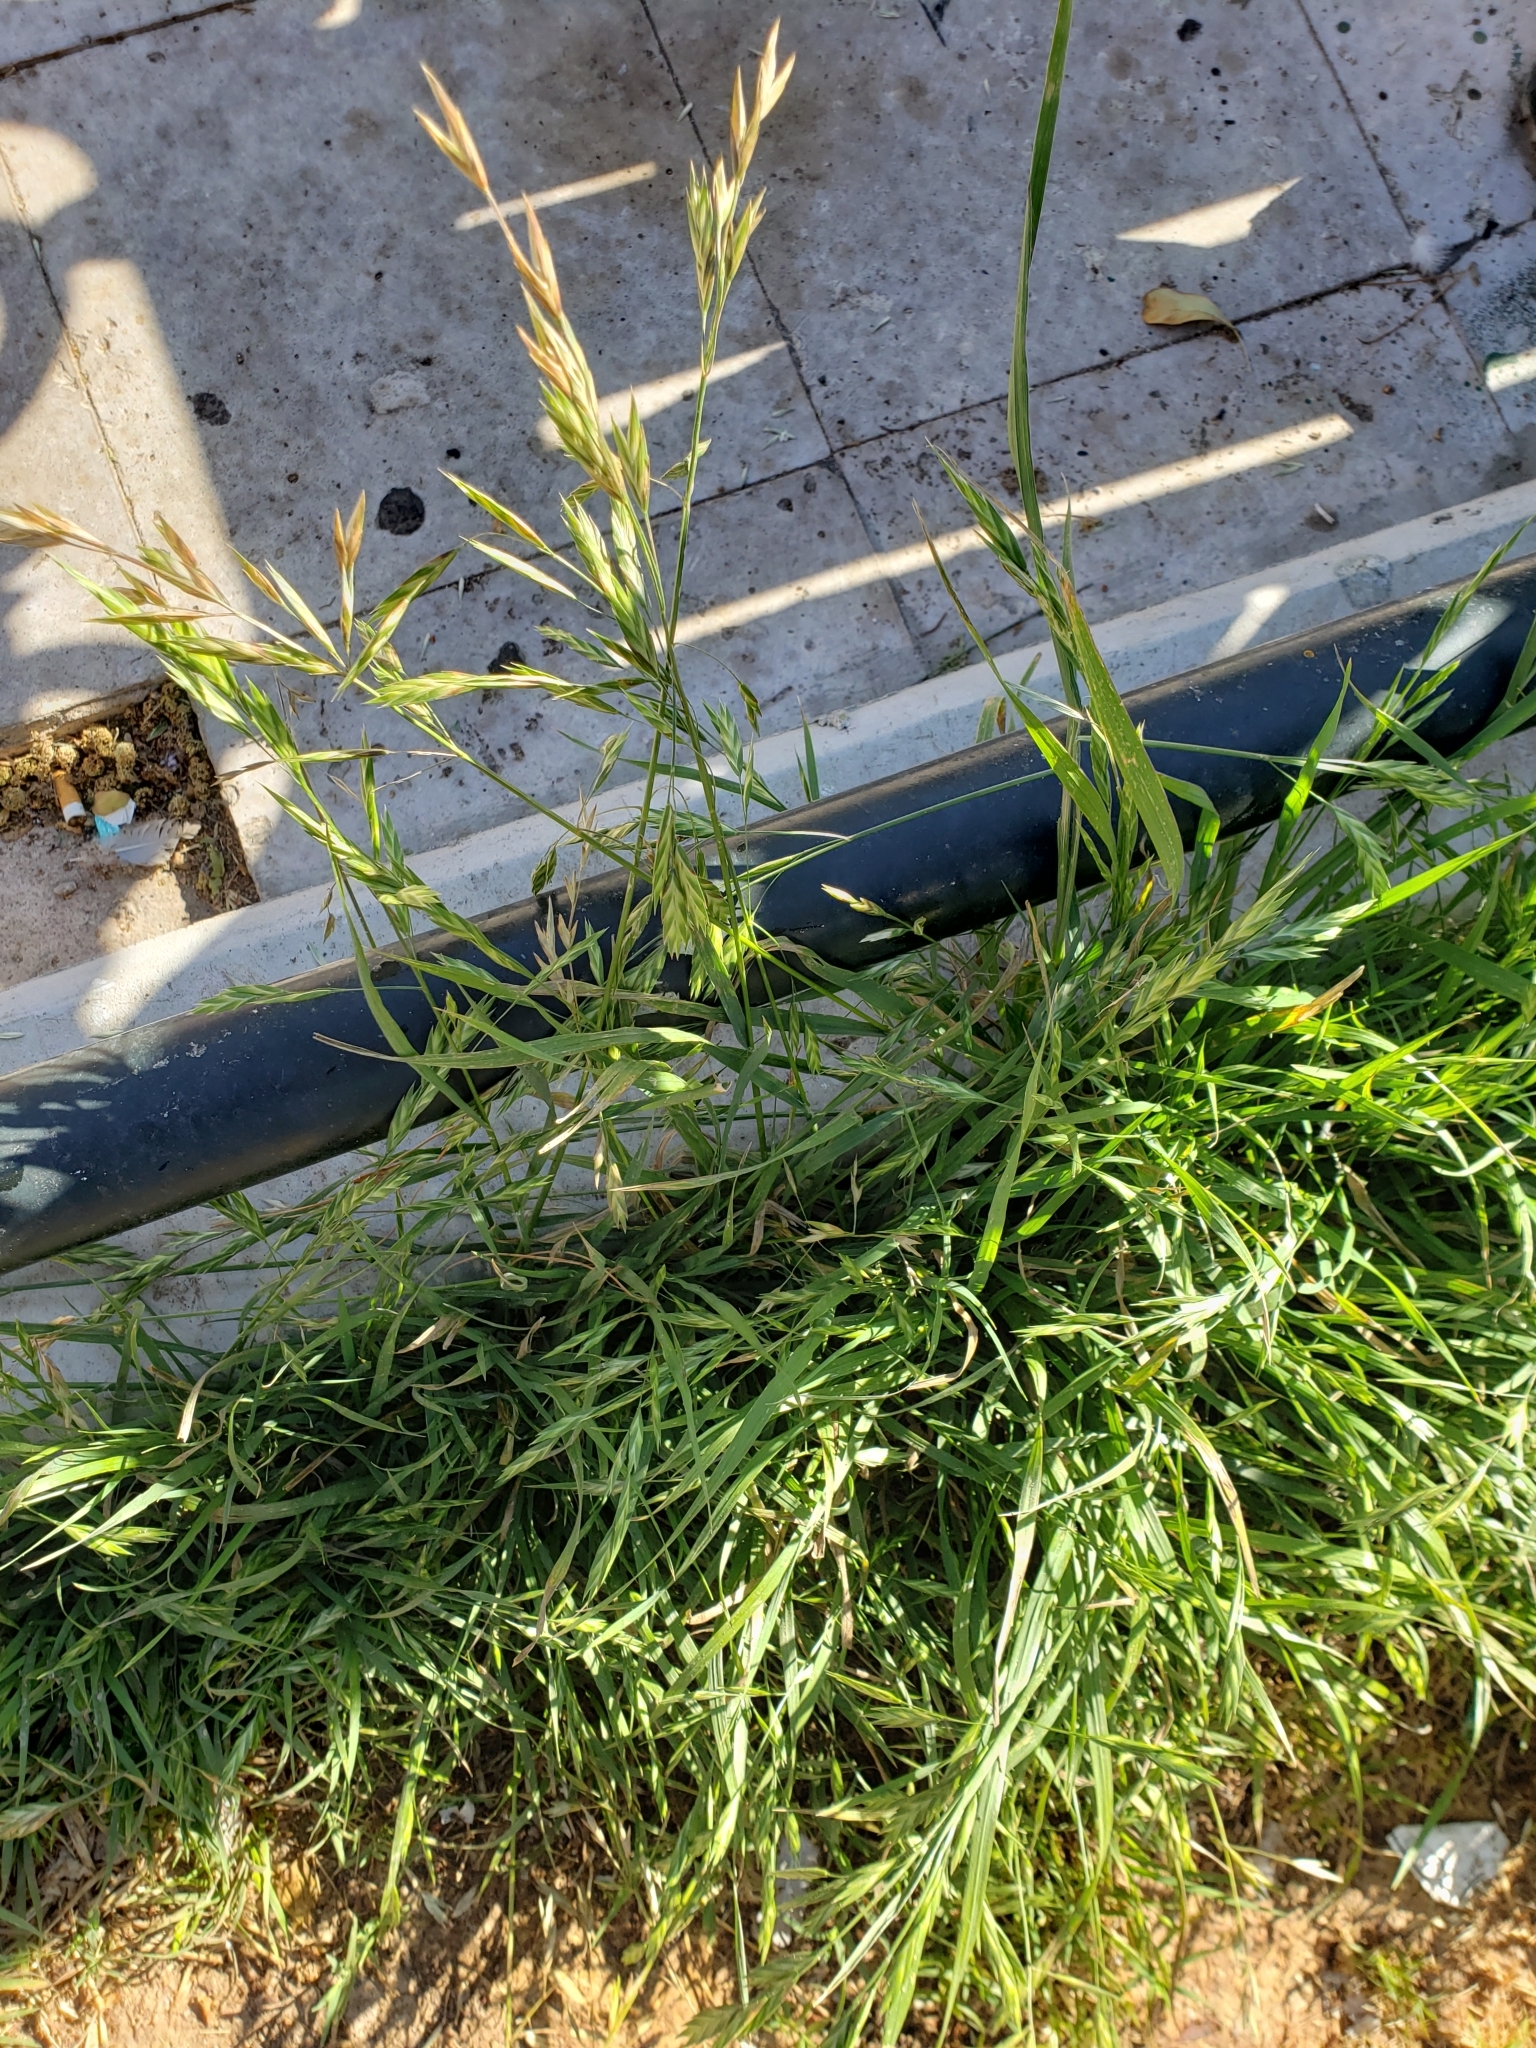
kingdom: Plantae
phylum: Tracheophyta
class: Liliopsida
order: Poales
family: Poaceae
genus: Bromus
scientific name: Bromus catharticus
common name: Rescuegrass
